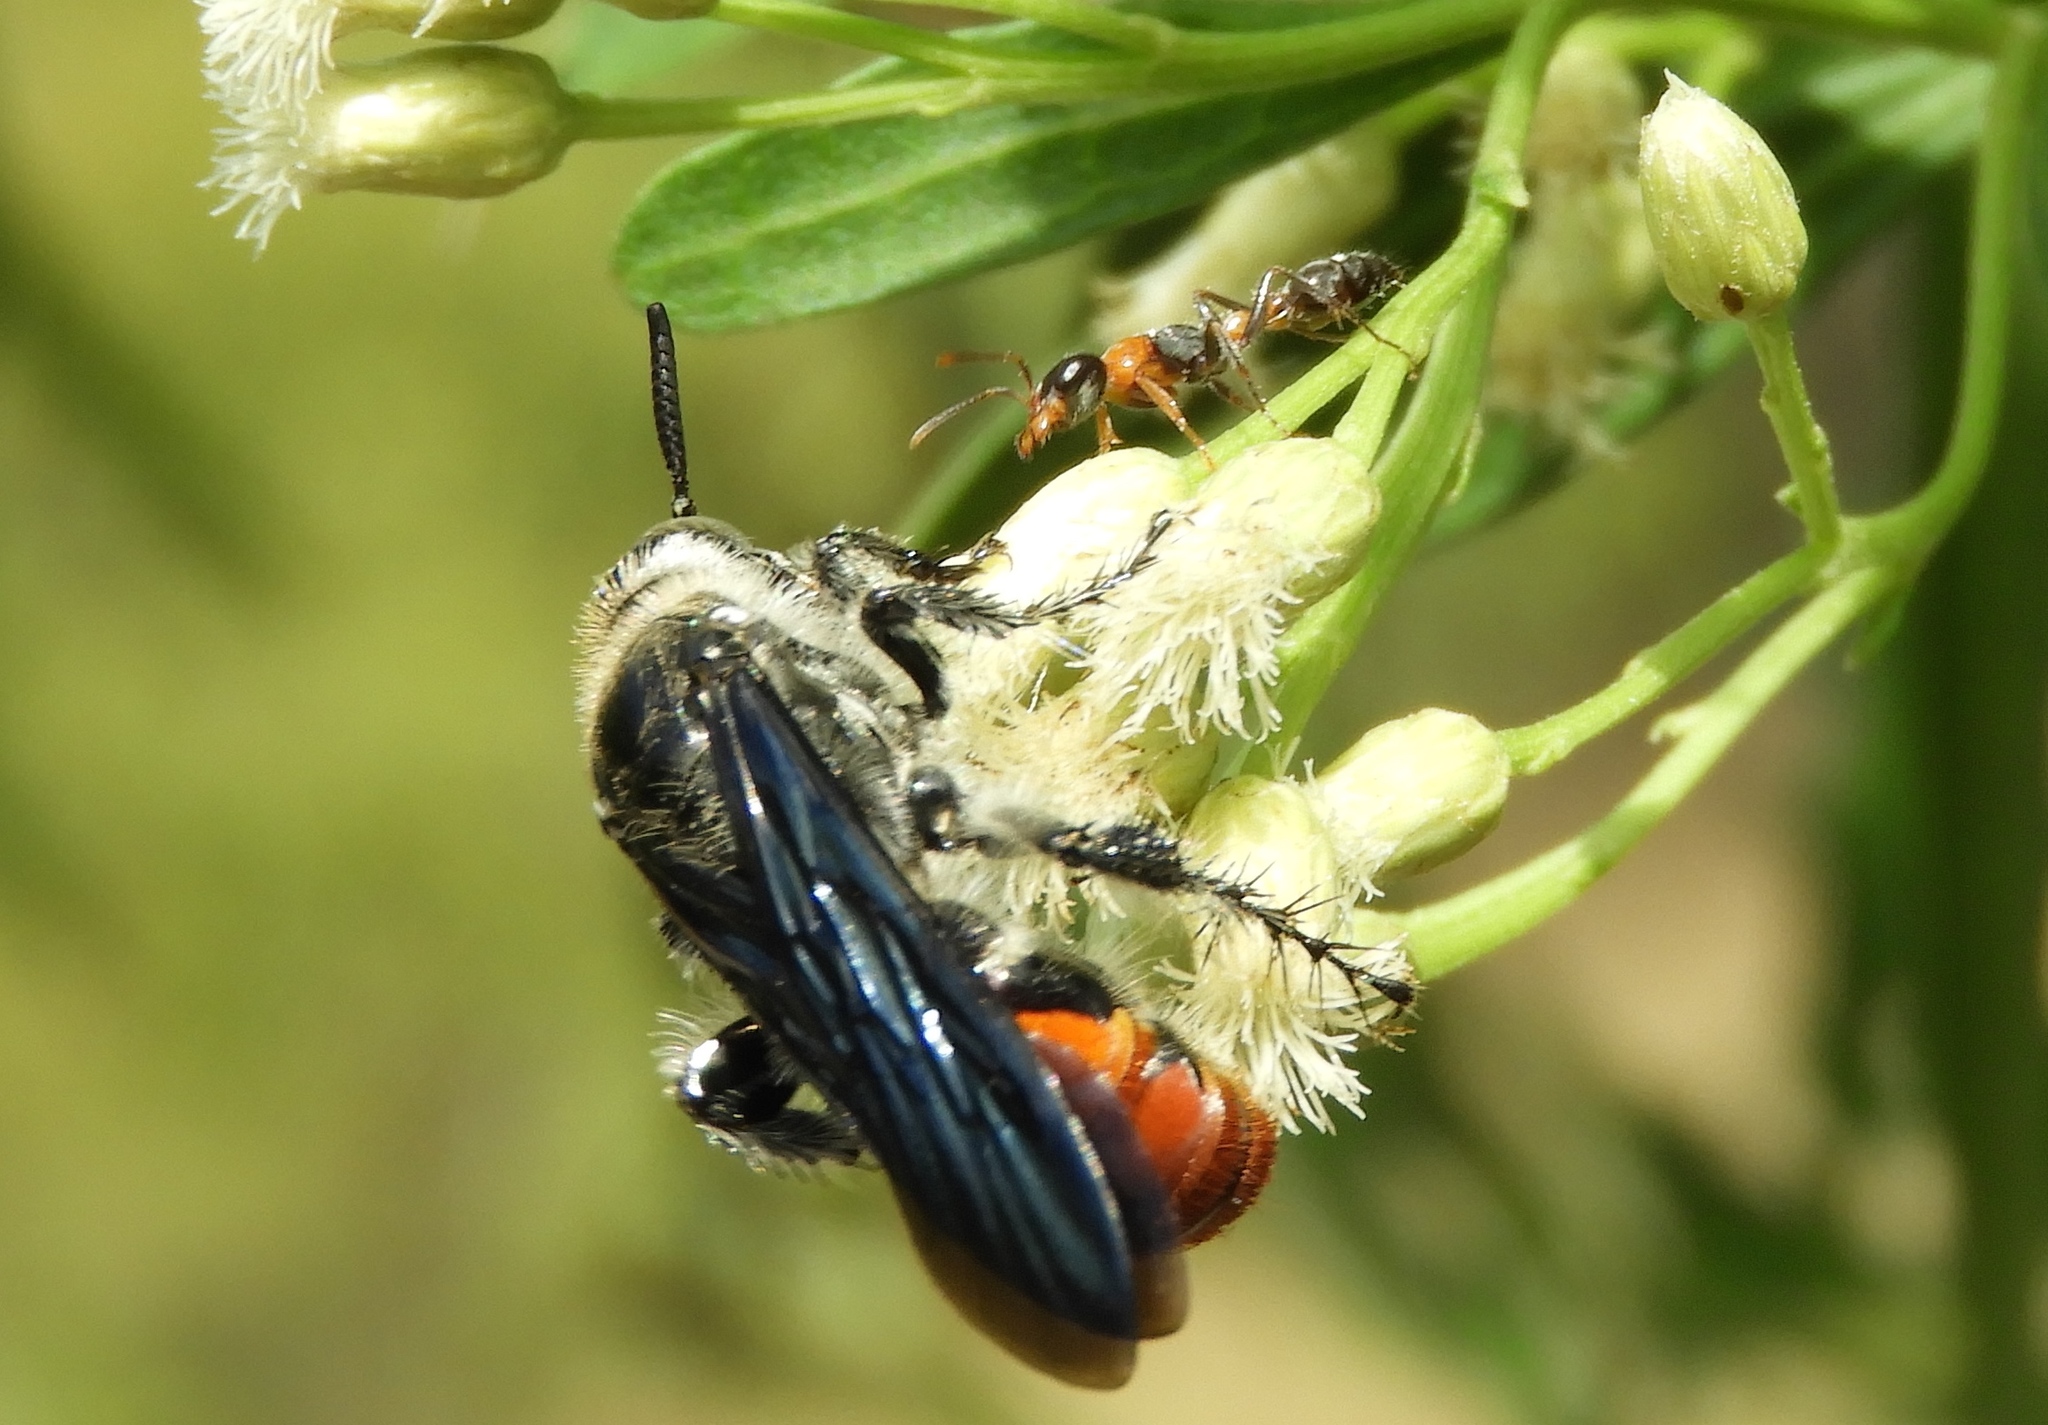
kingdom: Animalia
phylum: Arthropoda
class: Insecta
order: Hymenoptera
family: Formicidae
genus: Pseudomyrmex
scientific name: Pseudomyrmex gracilis
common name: Graceful twig ant
